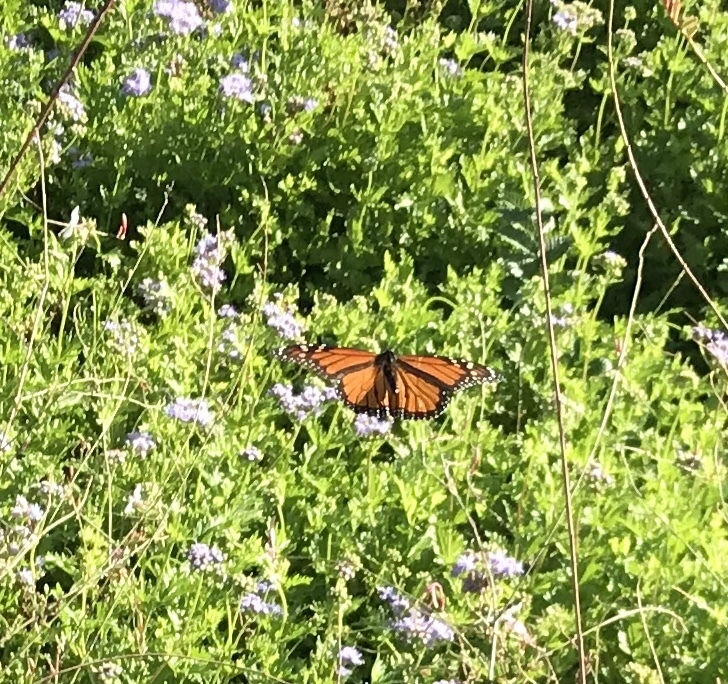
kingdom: Animalia
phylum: Arthropoda
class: Insecta
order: Lepidoptera
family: Nymphalidae
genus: Danaus
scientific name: Danaus plexippus
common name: Monarch
